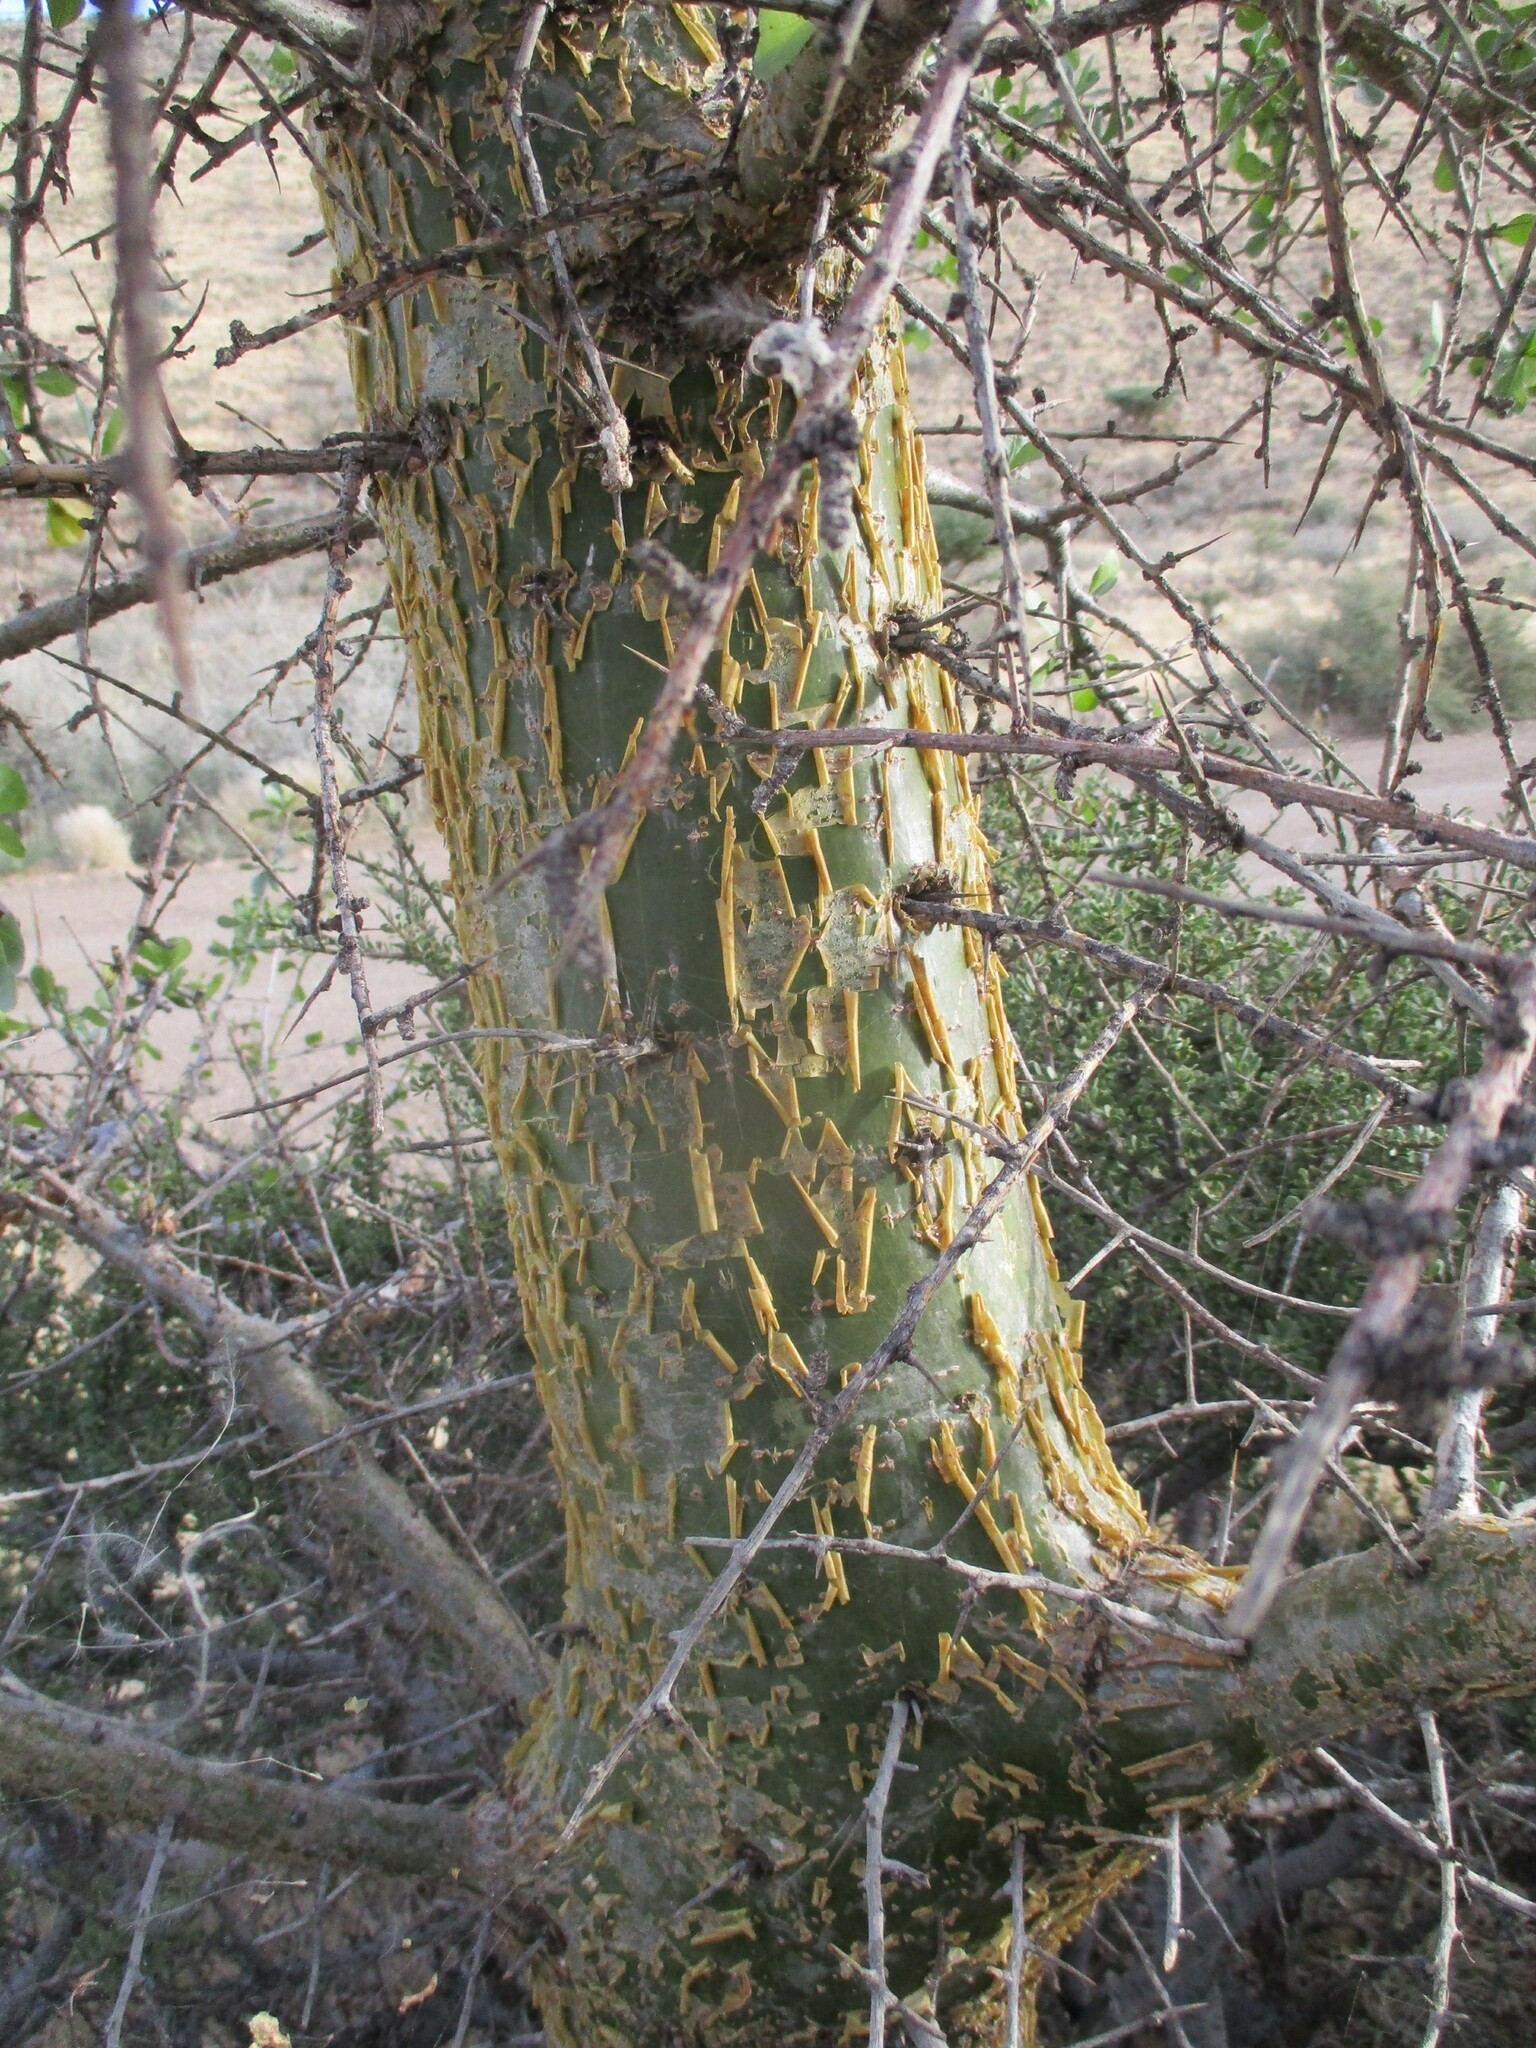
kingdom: Plantae
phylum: Tracheophyta
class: Magnoliopsida
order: Sapindales
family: Burseraceae
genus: Commiphora
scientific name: Commiphora pyracanthoides
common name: Cork tree
